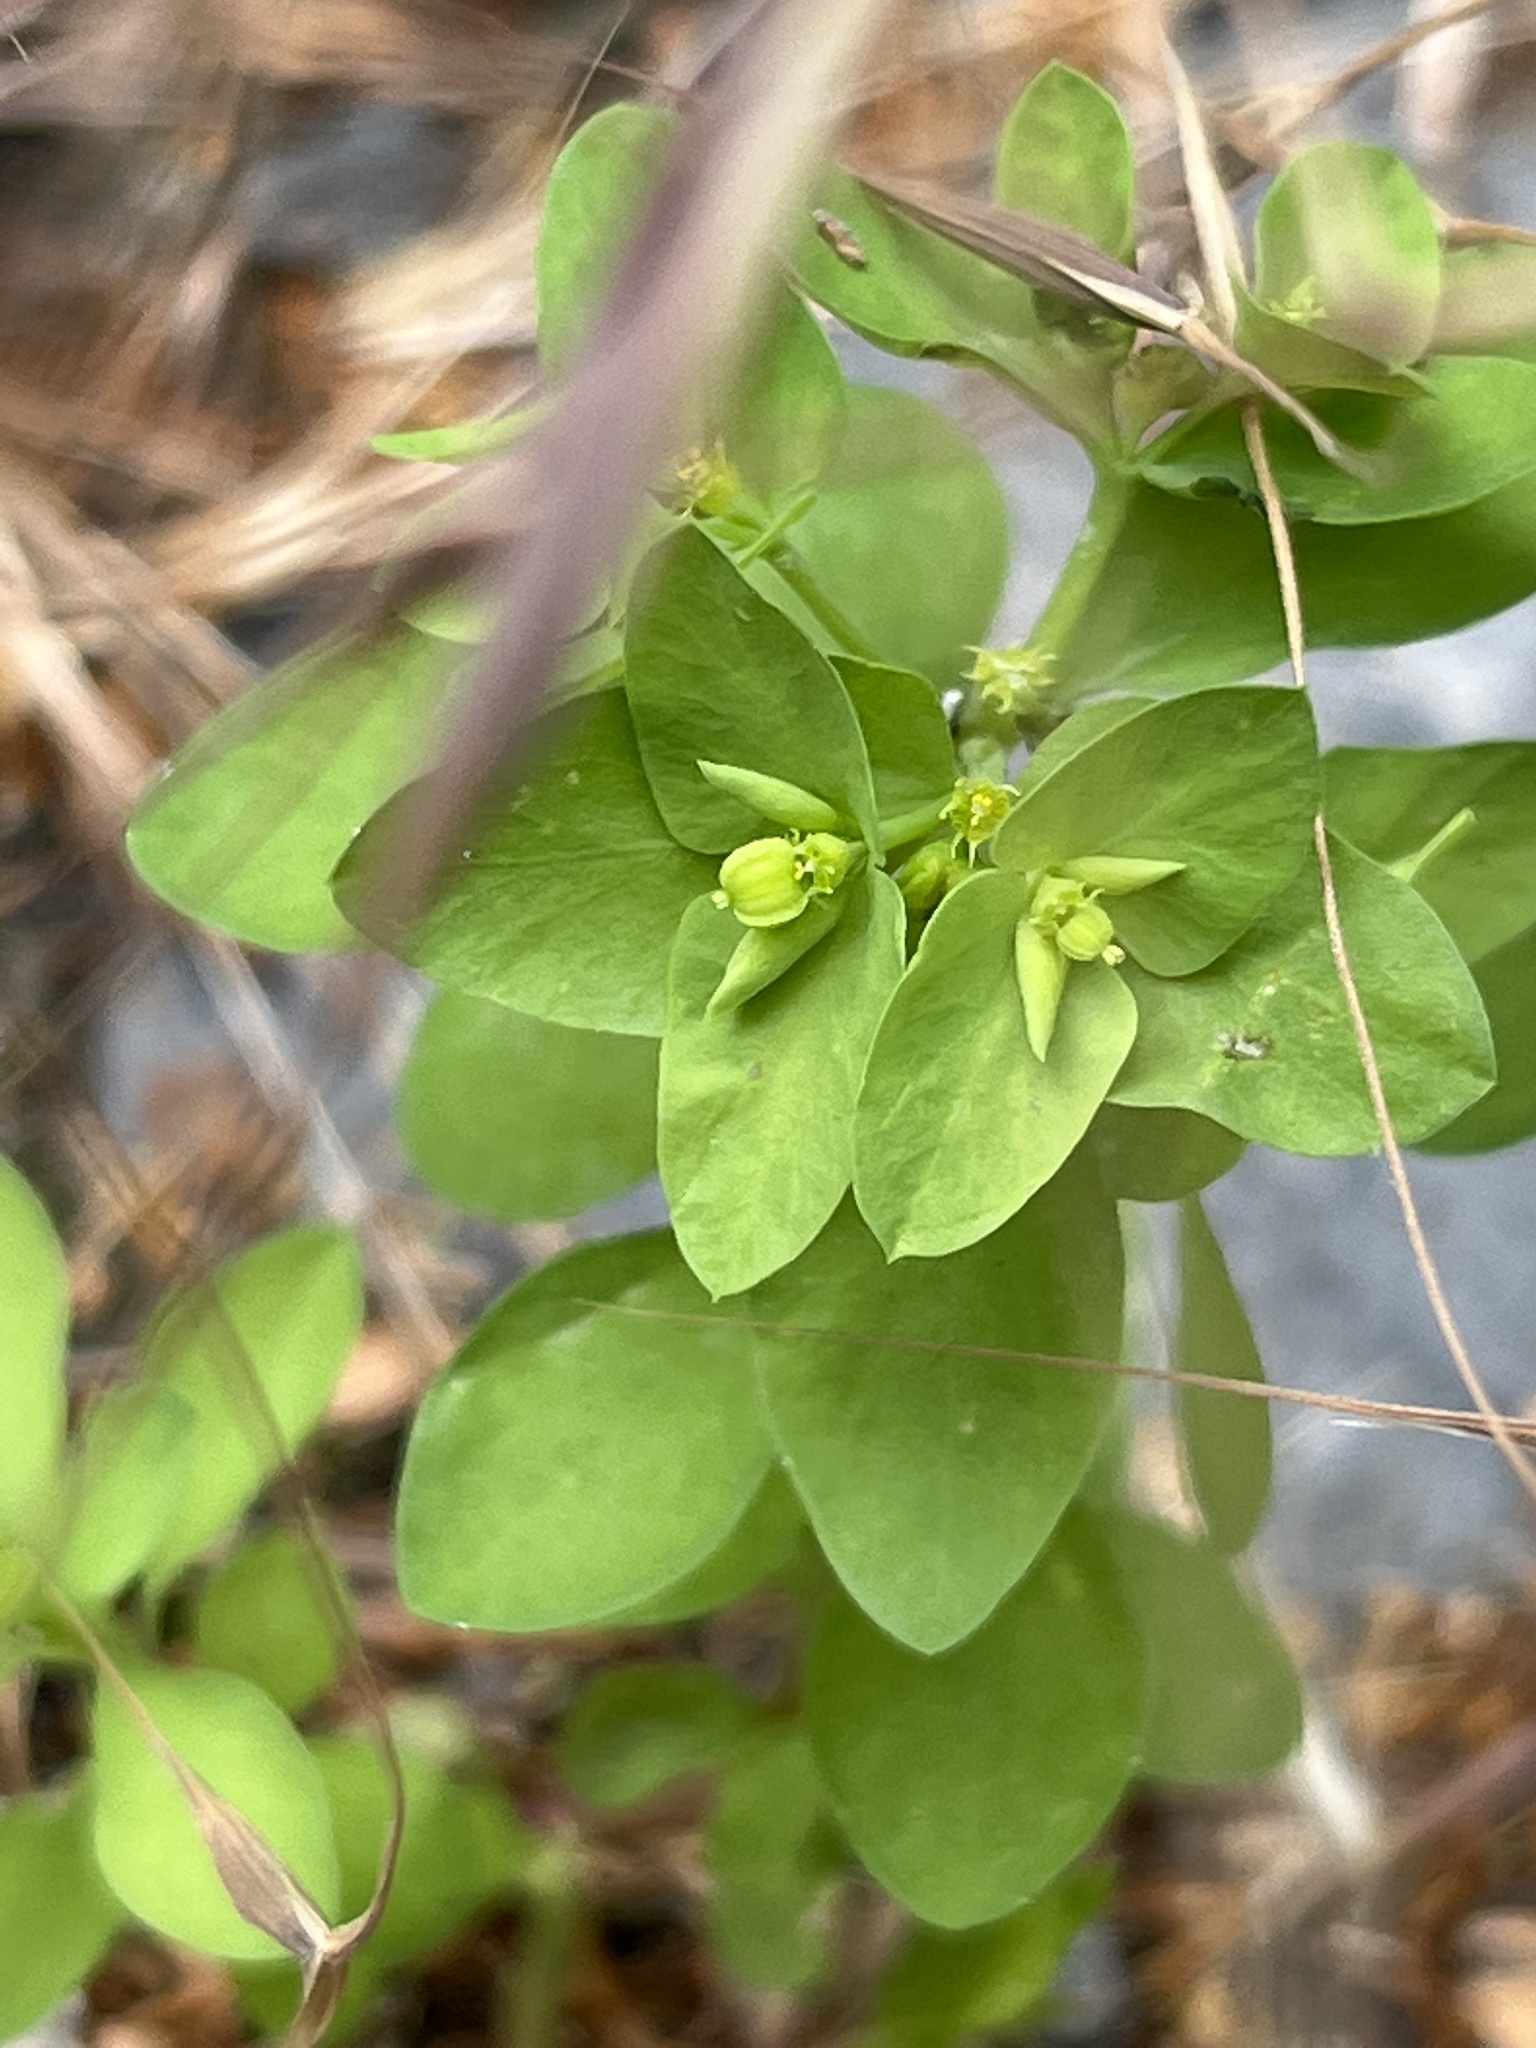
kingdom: Plantae
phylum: Tracheophyta
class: Magnoliopsida
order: Malpighiales
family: Euphorbiaceae
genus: Euphorbia
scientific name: Euphorbia peplus
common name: Petty spurge
